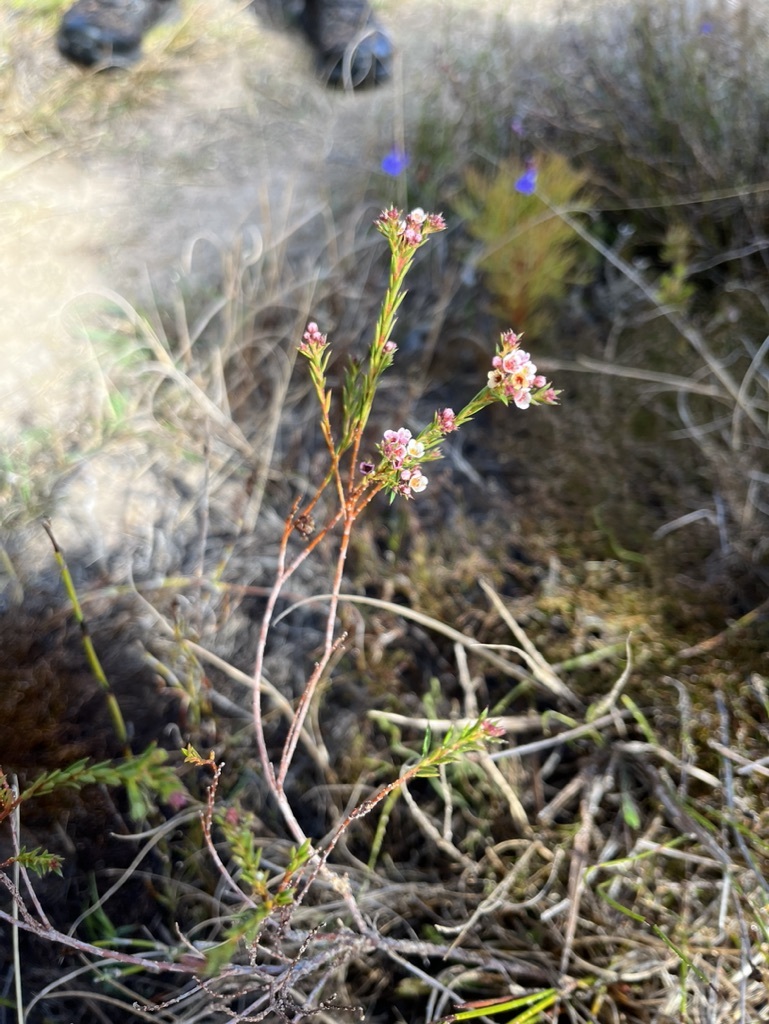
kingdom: Plantae
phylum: Tracheophyta
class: Magnoliopsida
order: Sapindales
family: Rutaceae
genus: Diosma
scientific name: Diosma hirsuta
